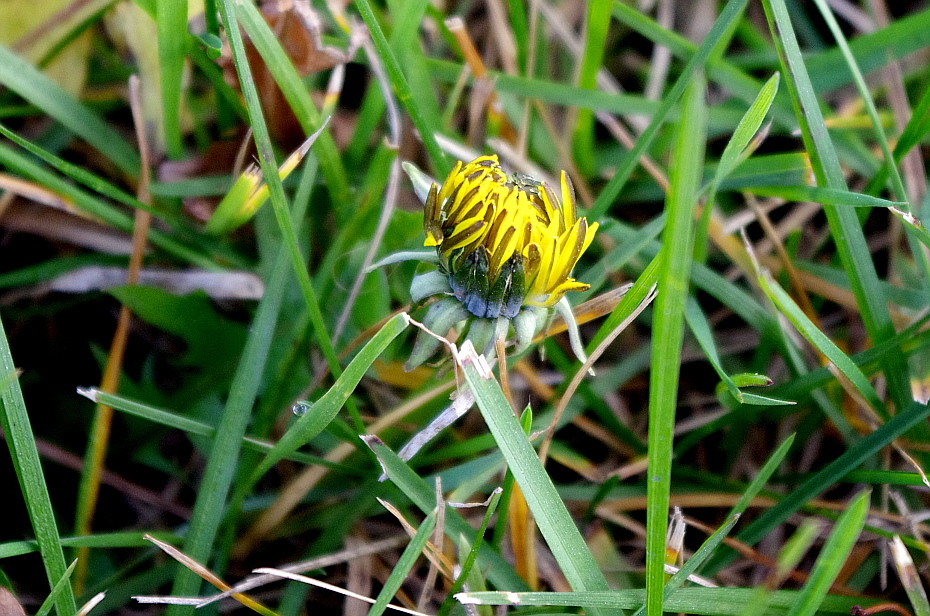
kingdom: Plantae
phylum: Tracheophyta
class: Magnoliopsida
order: Asterales
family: Asteraceae
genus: Taraxacum
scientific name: Taraxacum officinale
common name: Common dandelion
